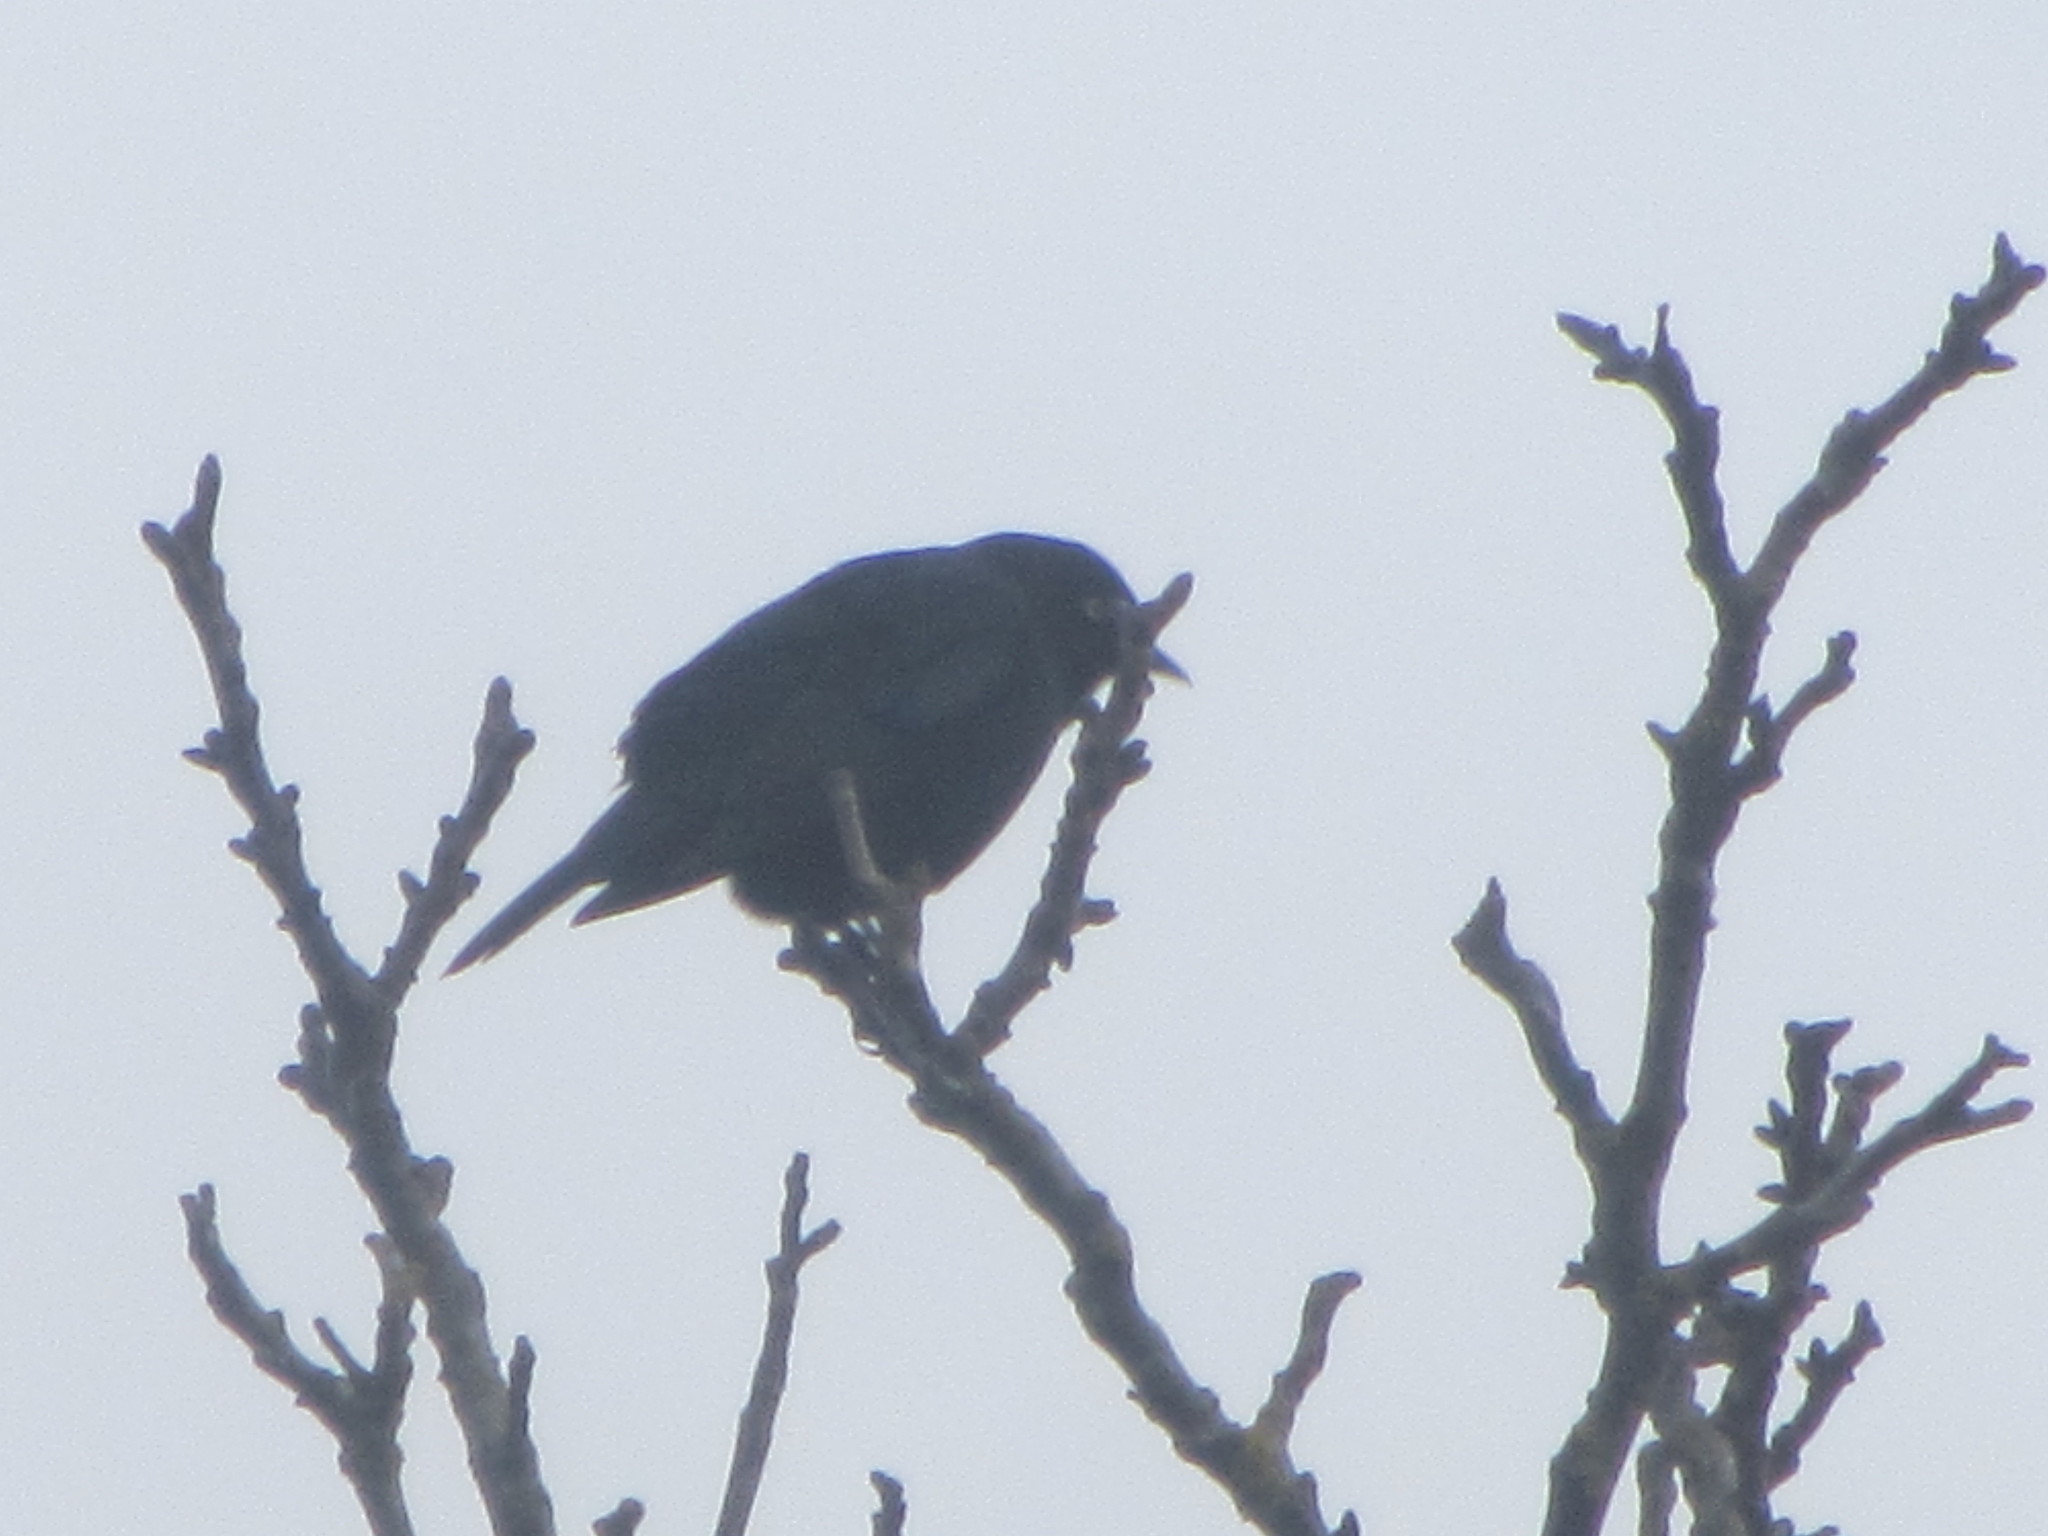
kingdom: Animalia
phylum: Chordata
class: Aves
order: Passeriformes
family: Icteridae
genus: Euphagus
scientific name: Euphagus cyanocephalus
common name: Brewer's blackbird
